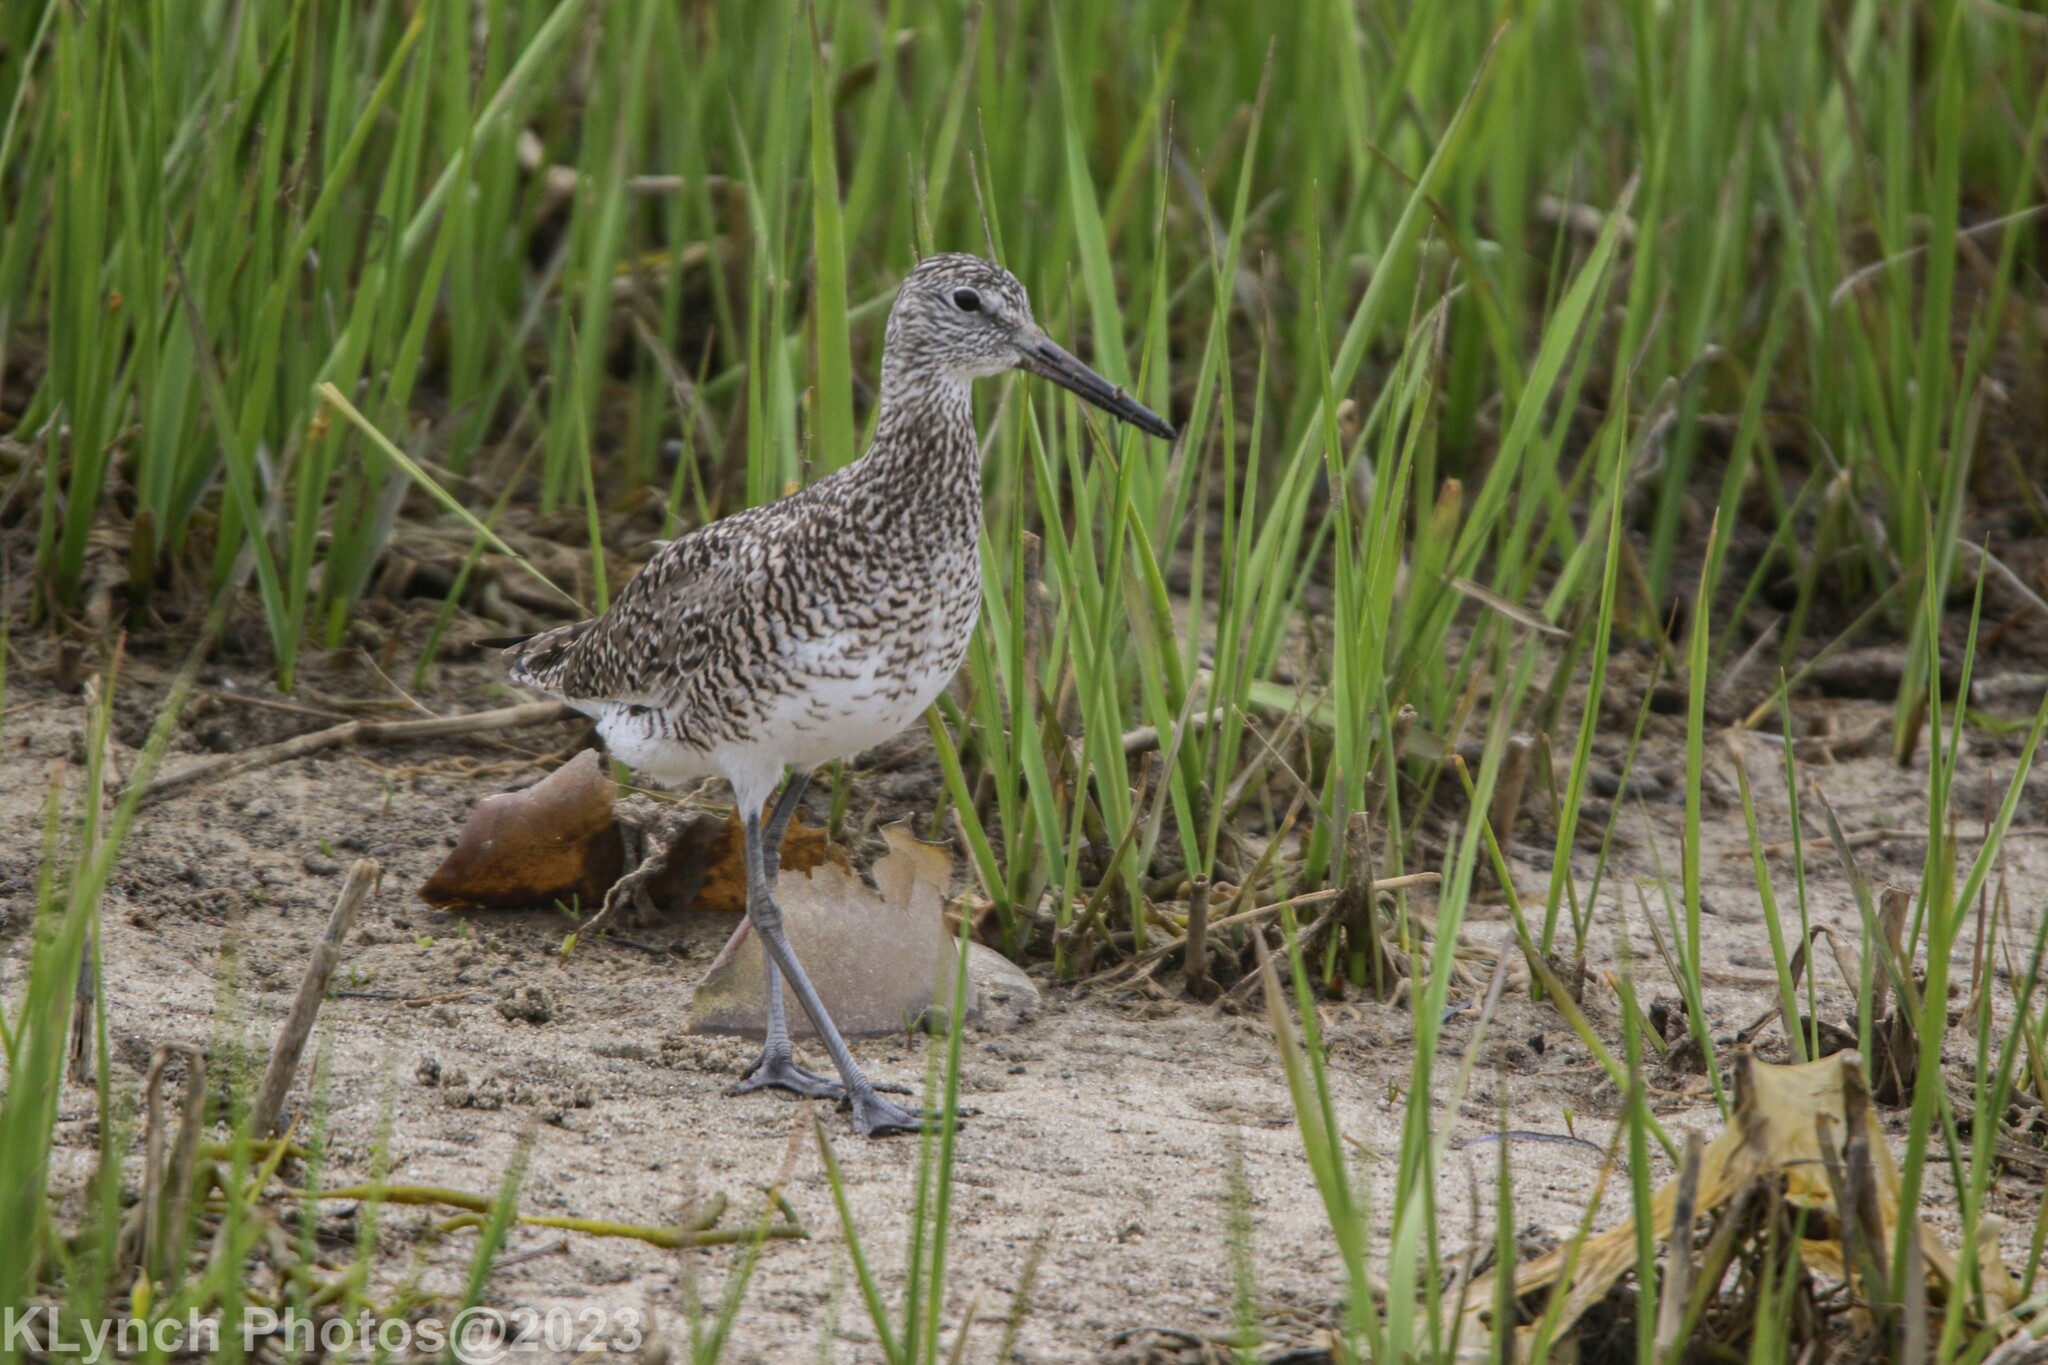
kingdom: Animalia
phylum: Chordata
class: Aves
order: Charadriiformes
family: Scolopacidae
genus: Tringa
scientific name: Tringa semipalmata
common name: Willet
